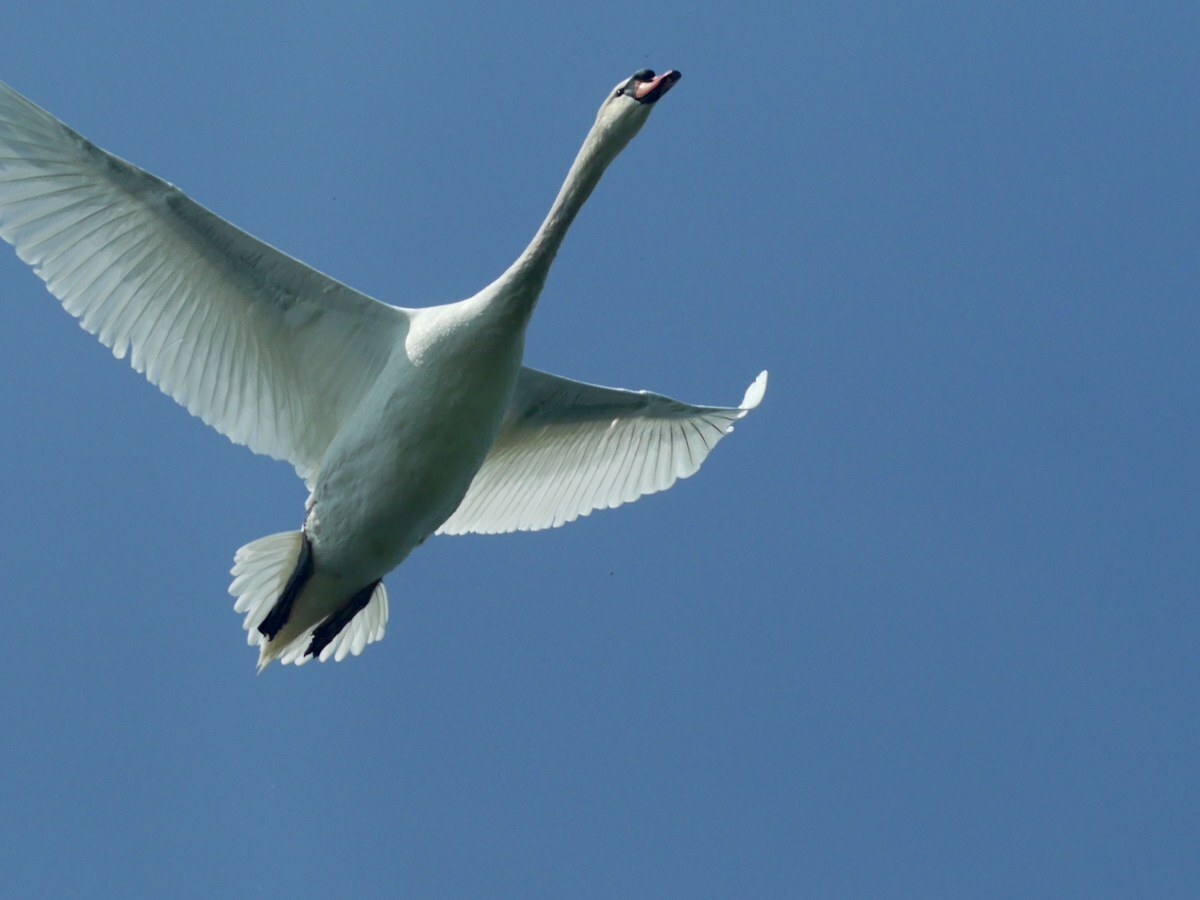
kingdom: Animalia
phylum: Chordata
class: Aves
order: Anseriformes
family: Anatidae
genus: Cygnus
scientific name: Cygnus olor
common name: Mute swan
